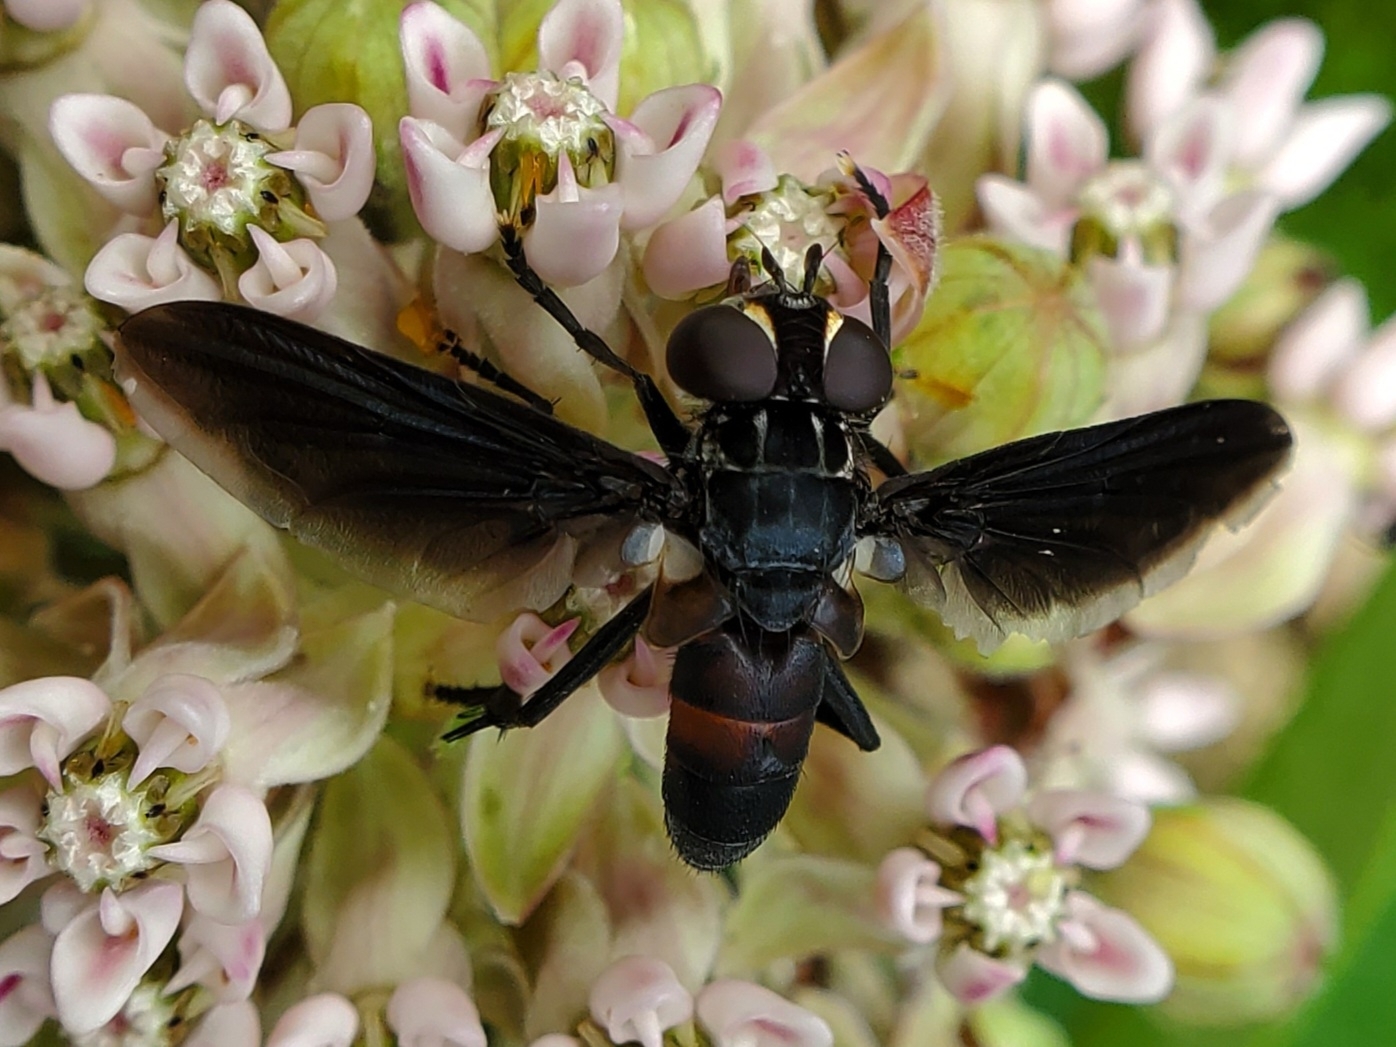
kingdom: Animalia
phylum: Arthropoda
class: Insecta
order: Diptera
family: Tachinidae
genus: Trichopoda
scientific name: Trichopoda lanipes
